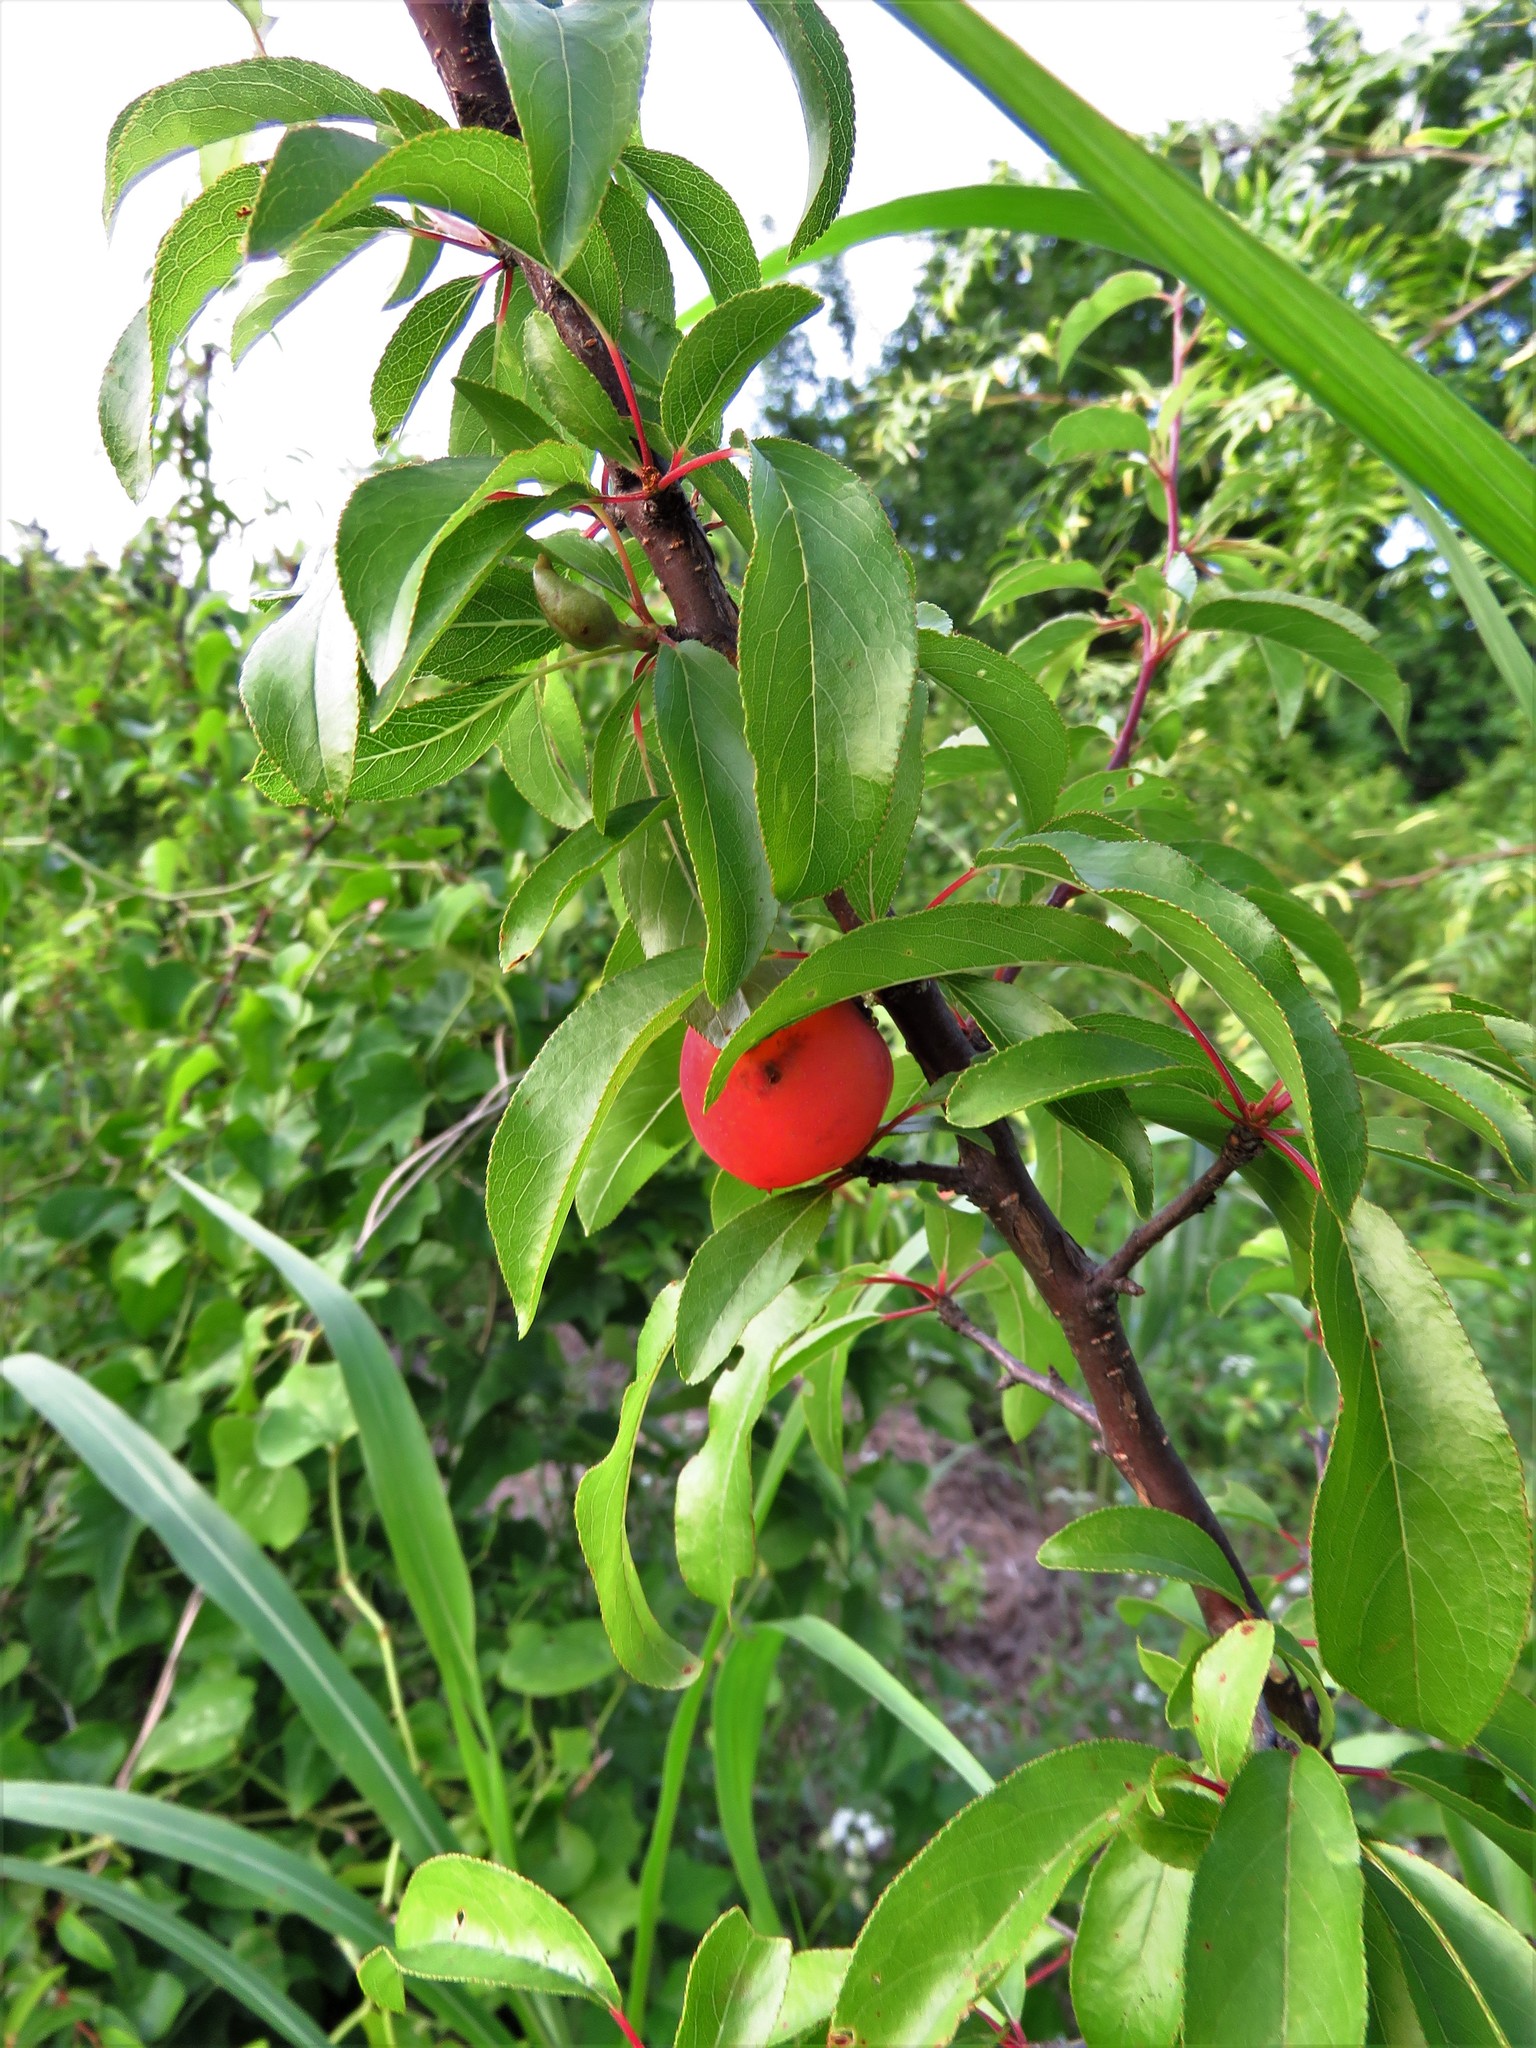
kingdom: Plantae
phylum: Tracheophyta
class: Magnoliopsida
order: Rosales
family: Rosaceae
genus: Prunus
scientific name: Prunus angustifolia
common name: Cherokee plum
